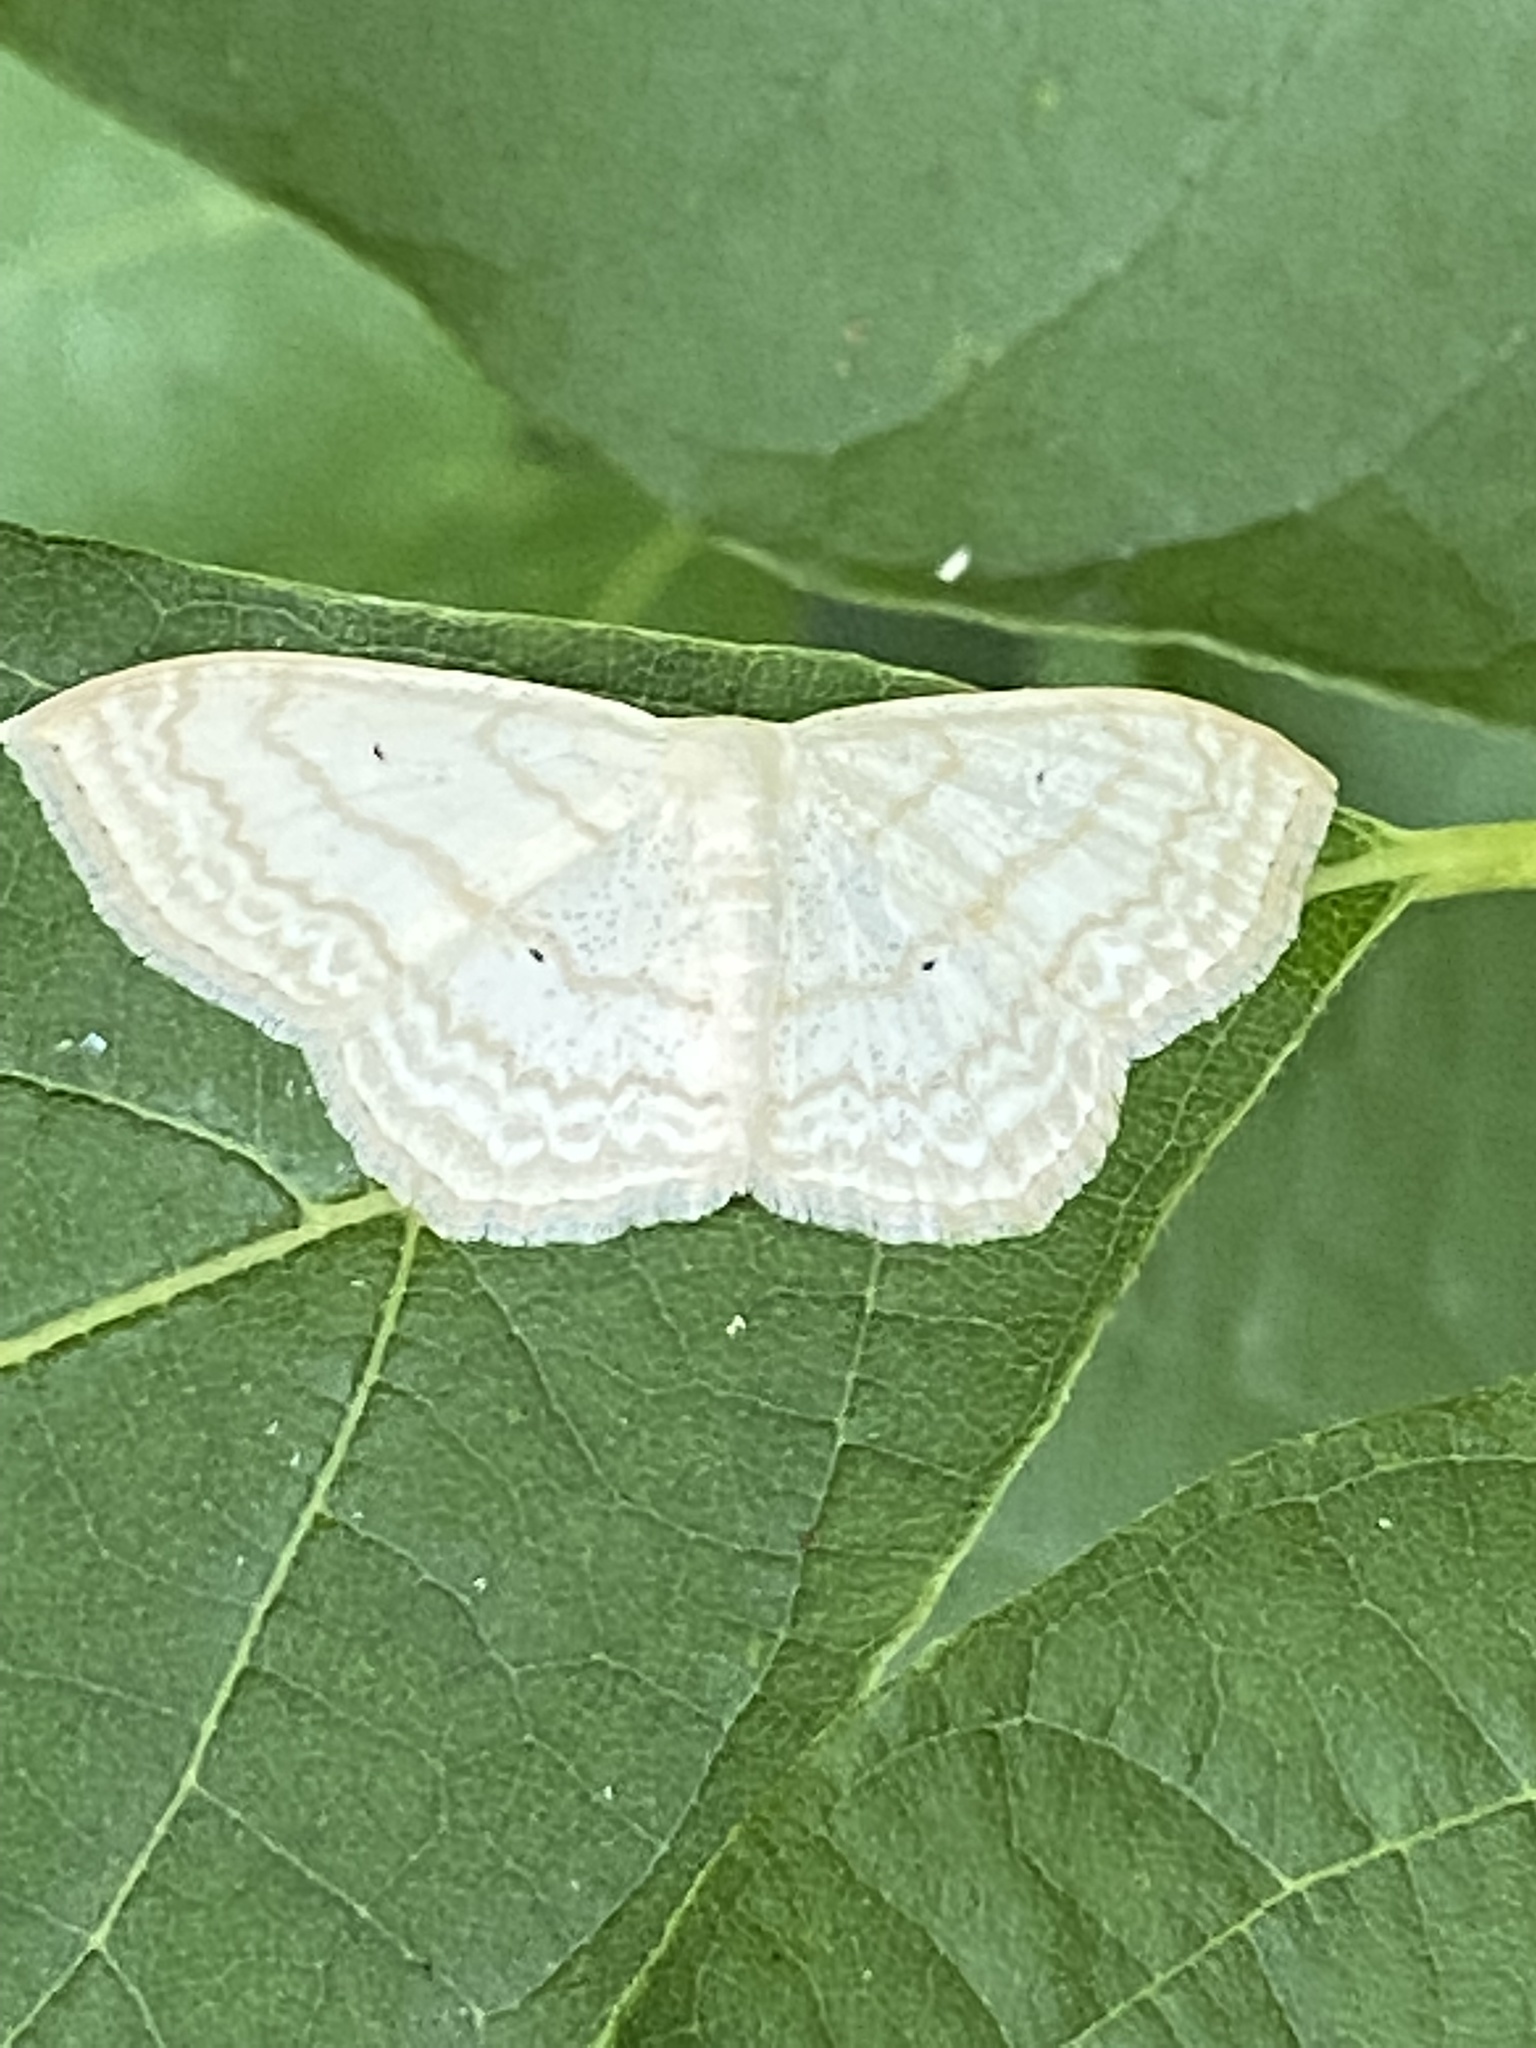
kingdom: Animalia
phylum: Arthropoda
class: Insecta
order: Lepidoptera
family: Geometridae
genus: Scopula
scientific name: Scopula limboundata
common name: Large lace border
